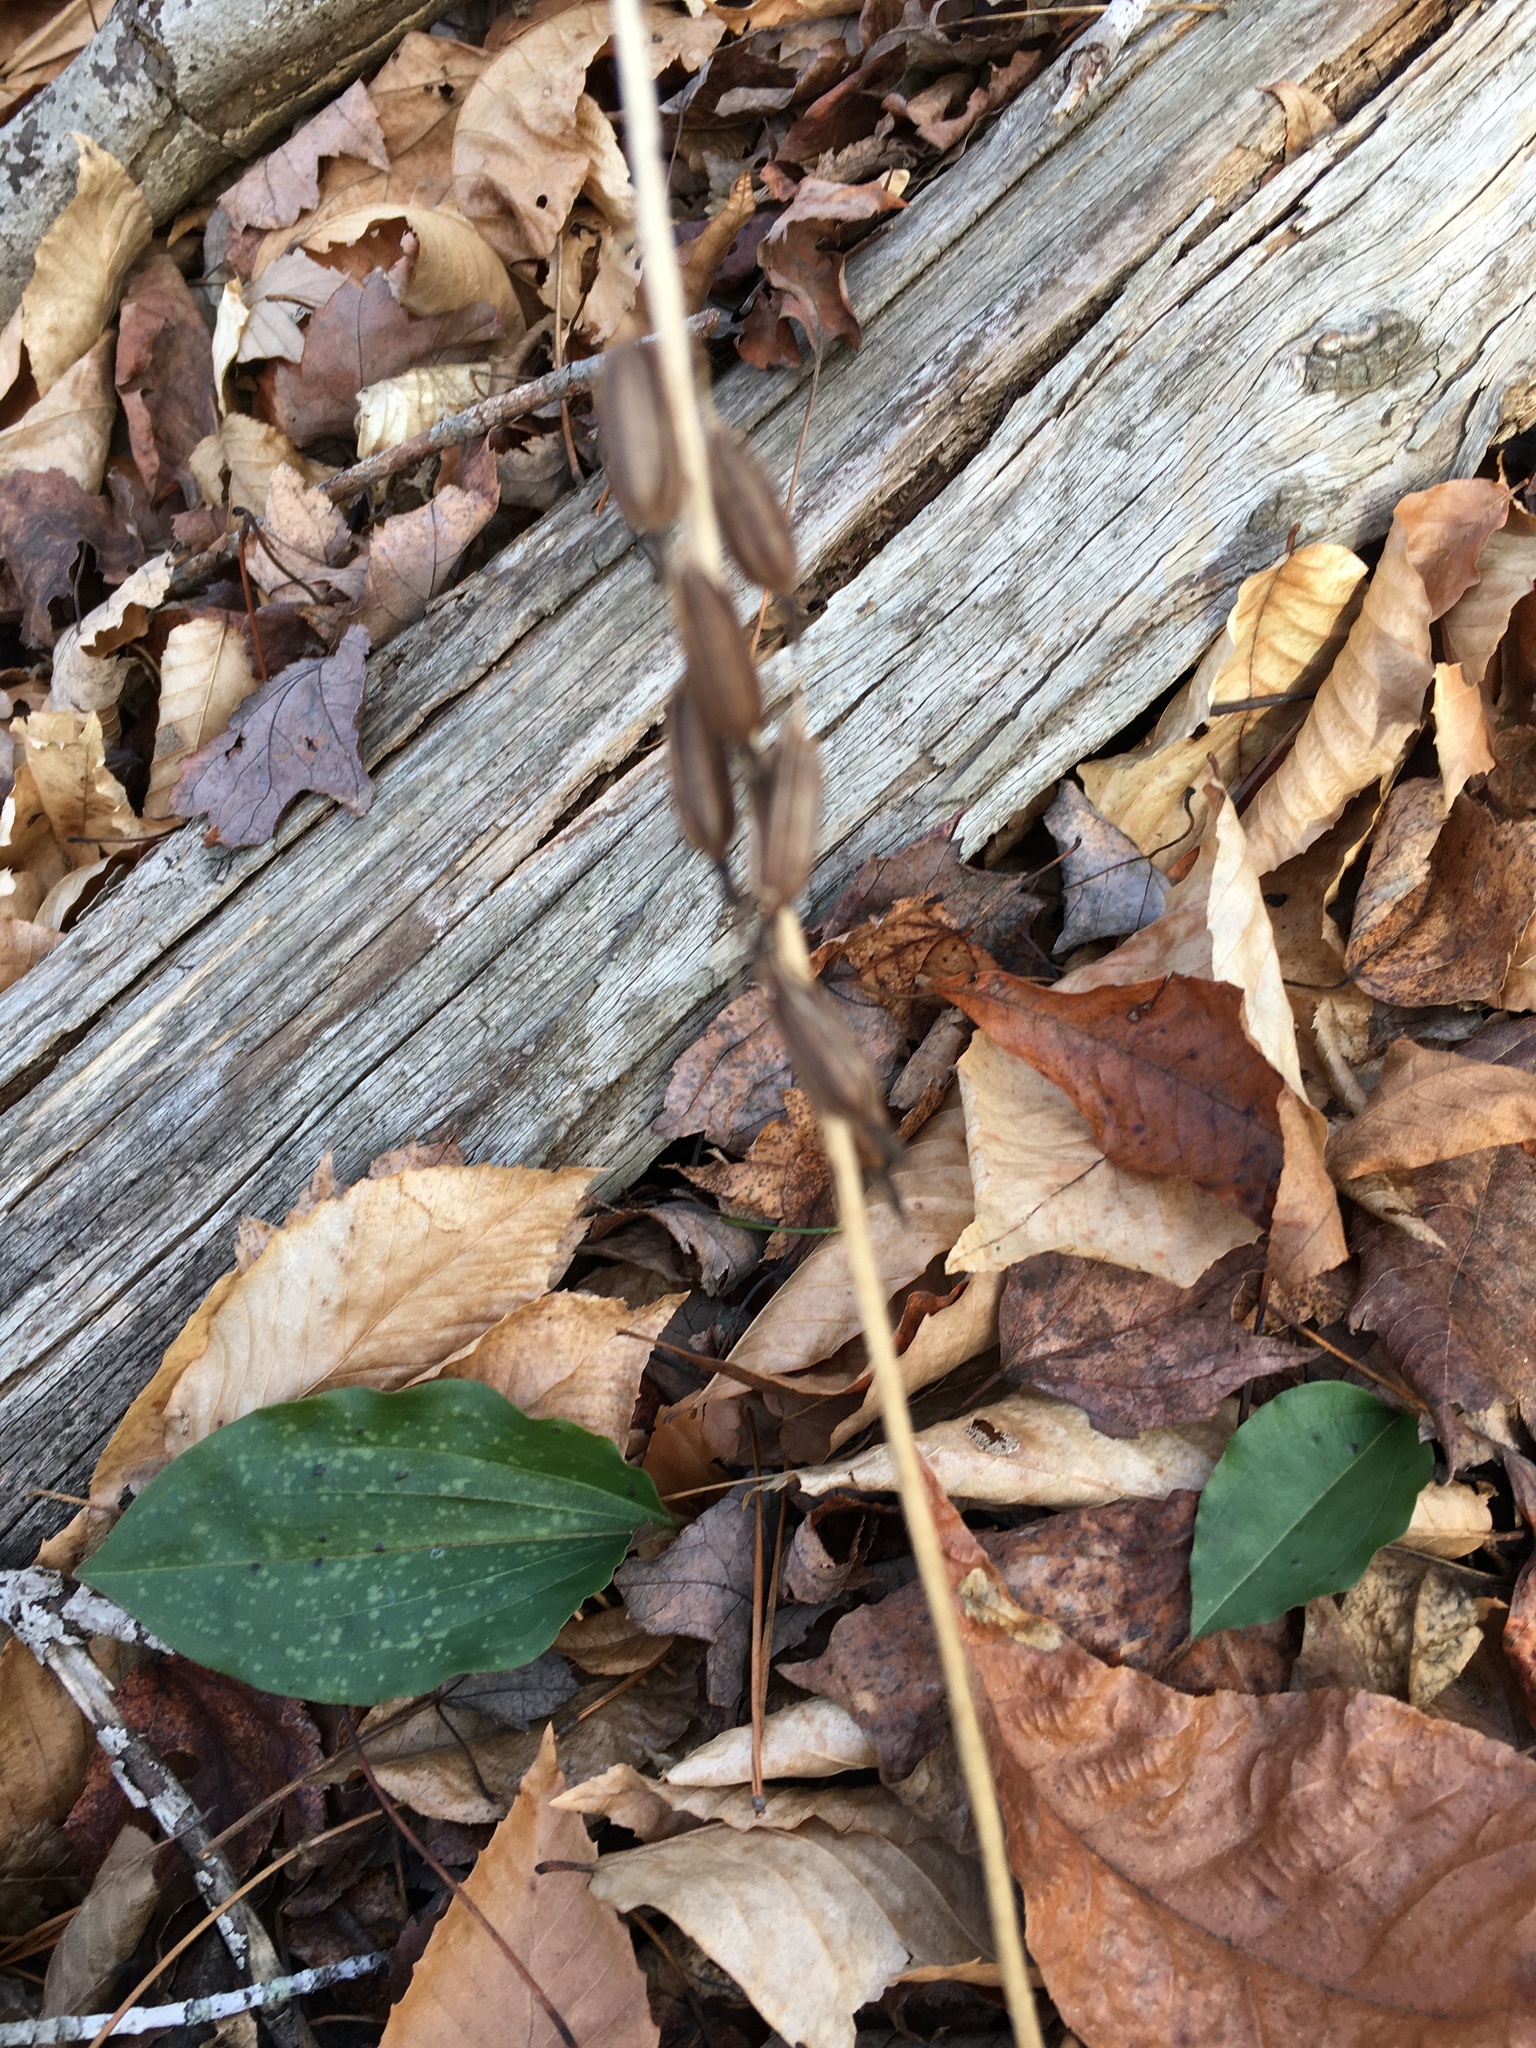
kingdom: Plantae
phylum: Tracheophyta
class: Liliopsida
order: Asparagales
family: Orchidaceae
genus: Tipularia
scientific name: Tipularia discolor
